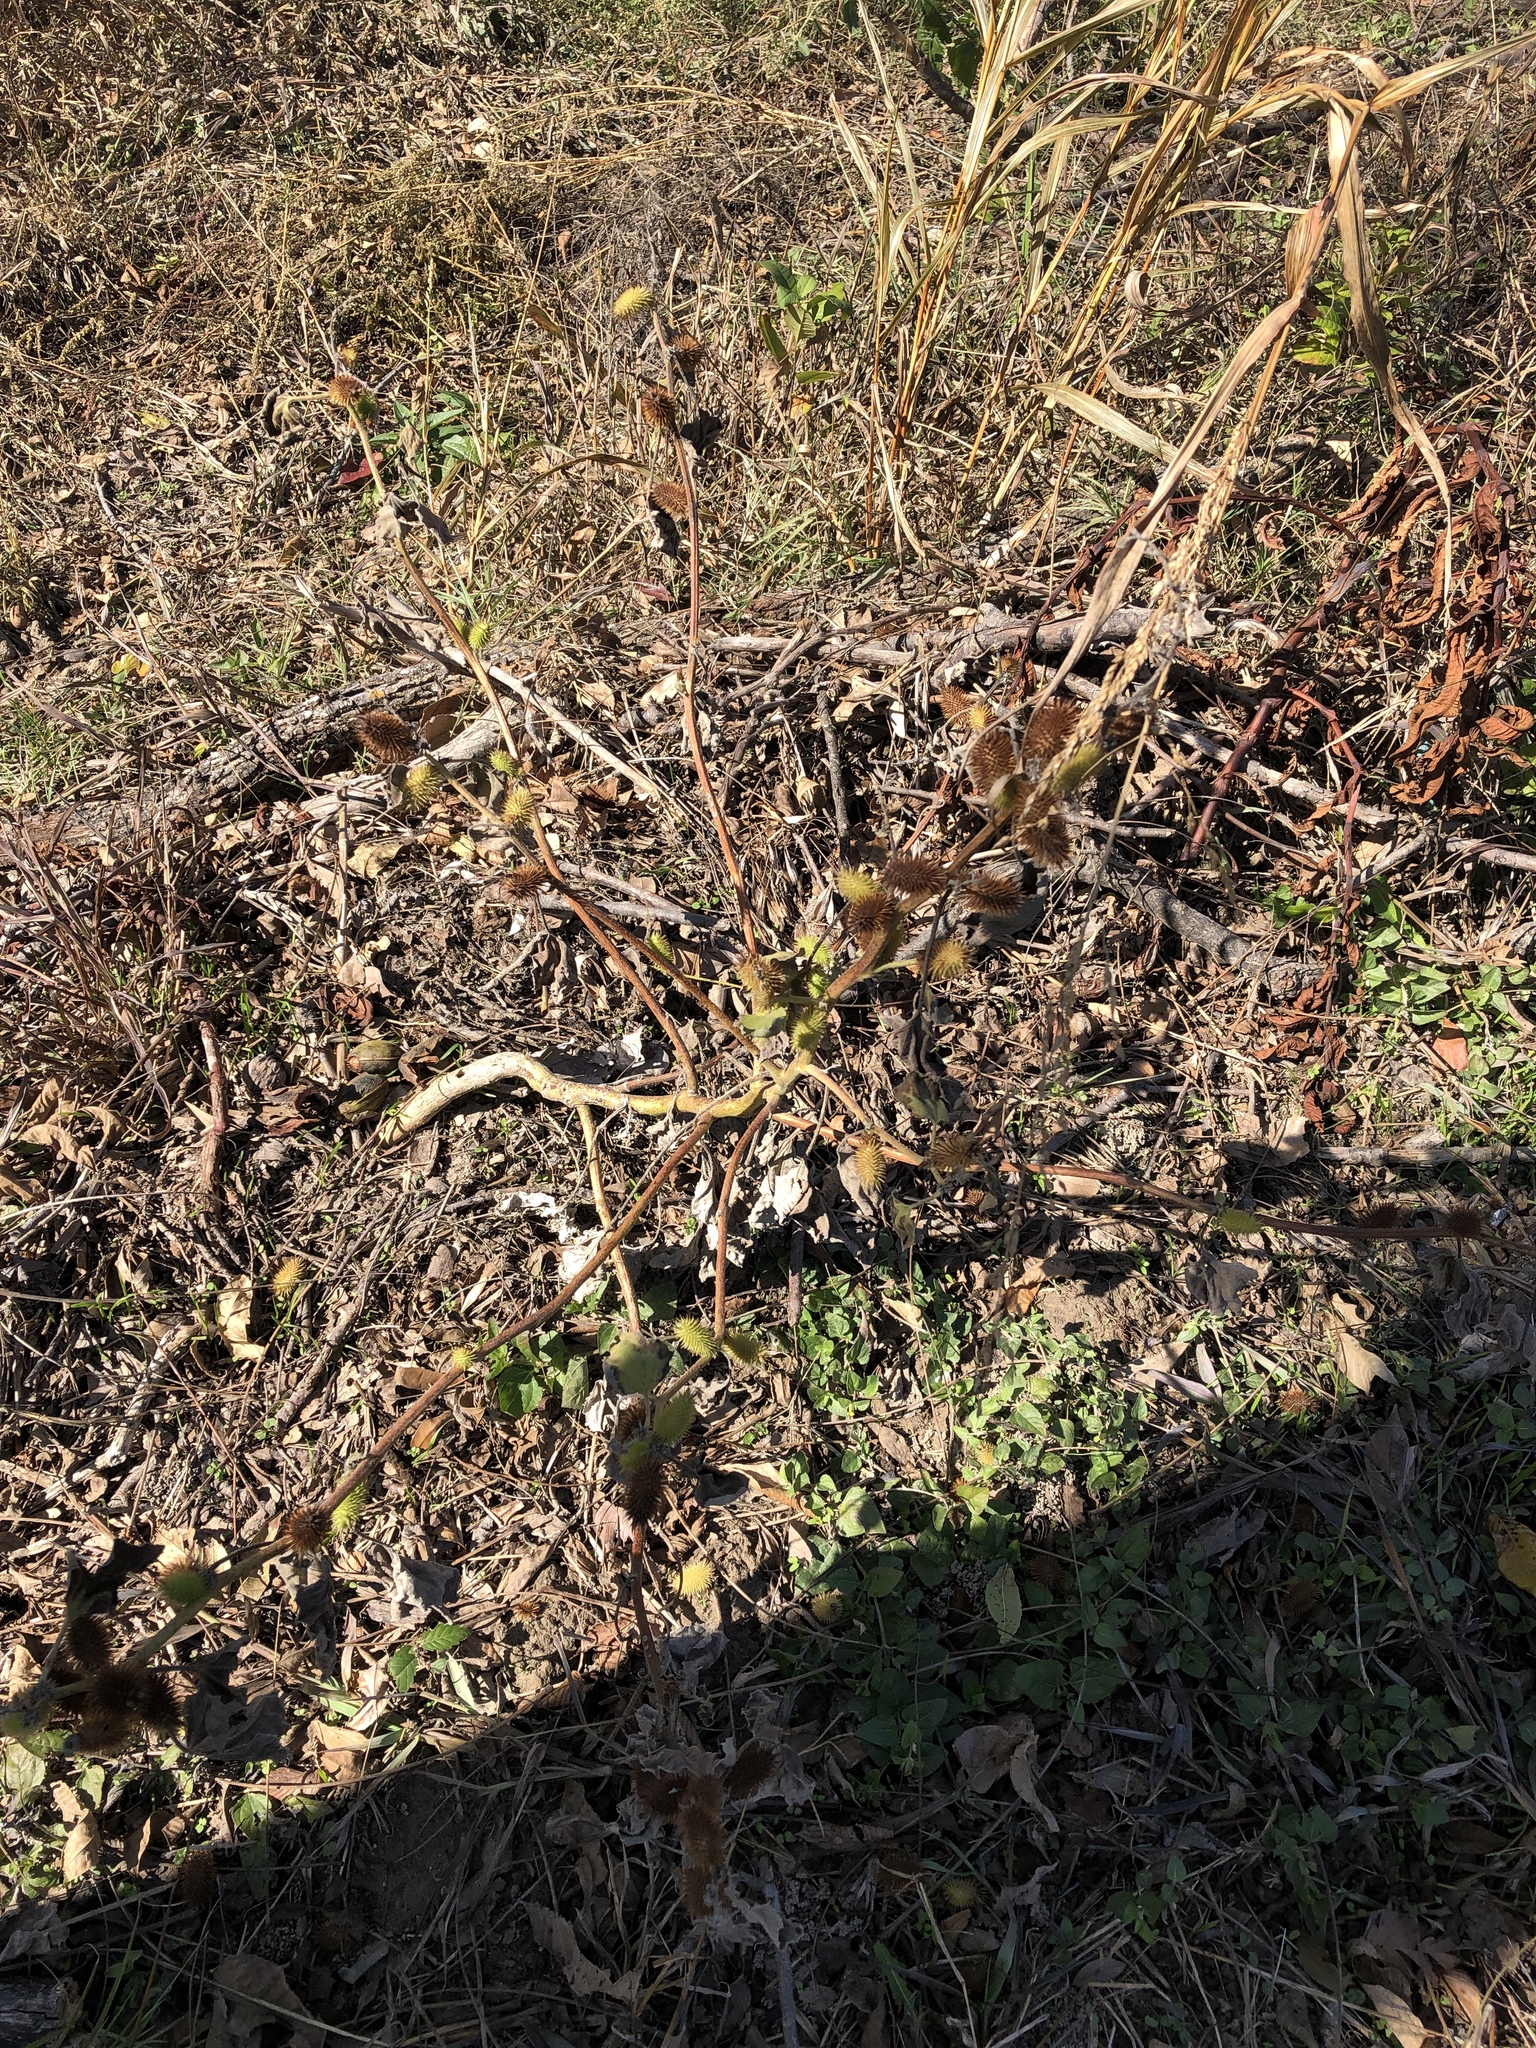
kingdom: Plantae
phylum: Tracheophyta
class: Magnoliopsida
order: Asterales
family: Asteraceae
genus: Xanthium
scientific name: Xanthium strumarium
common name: Rough cocklebur
